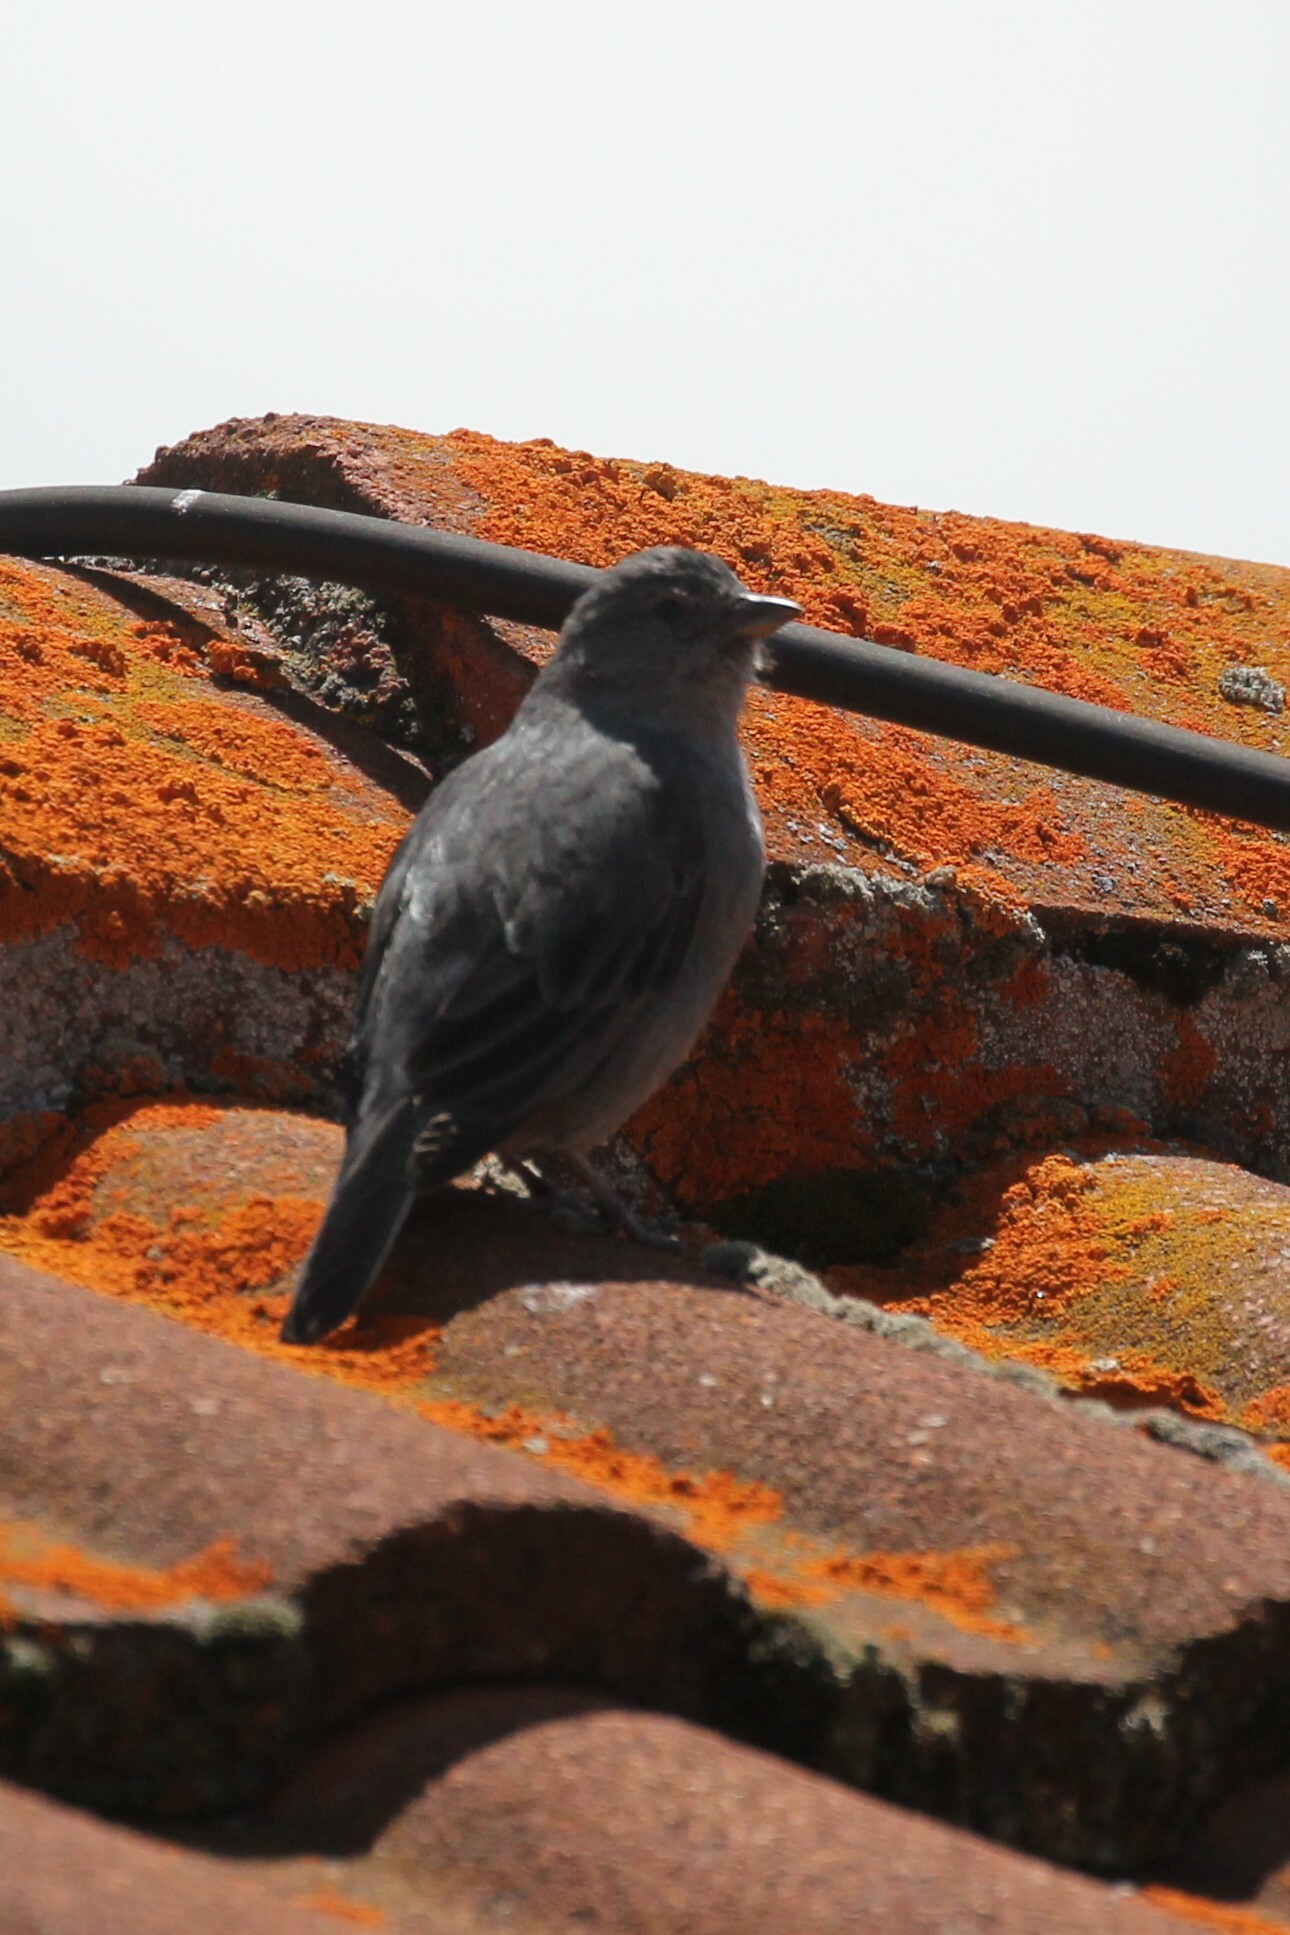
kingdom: Animalia
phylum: Chordata
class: Aves
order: Passeriformes
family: Thraupidae
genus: Geospizopsis
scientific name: Geospizopsis unicolor
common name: Plumbeous sierra-finch
